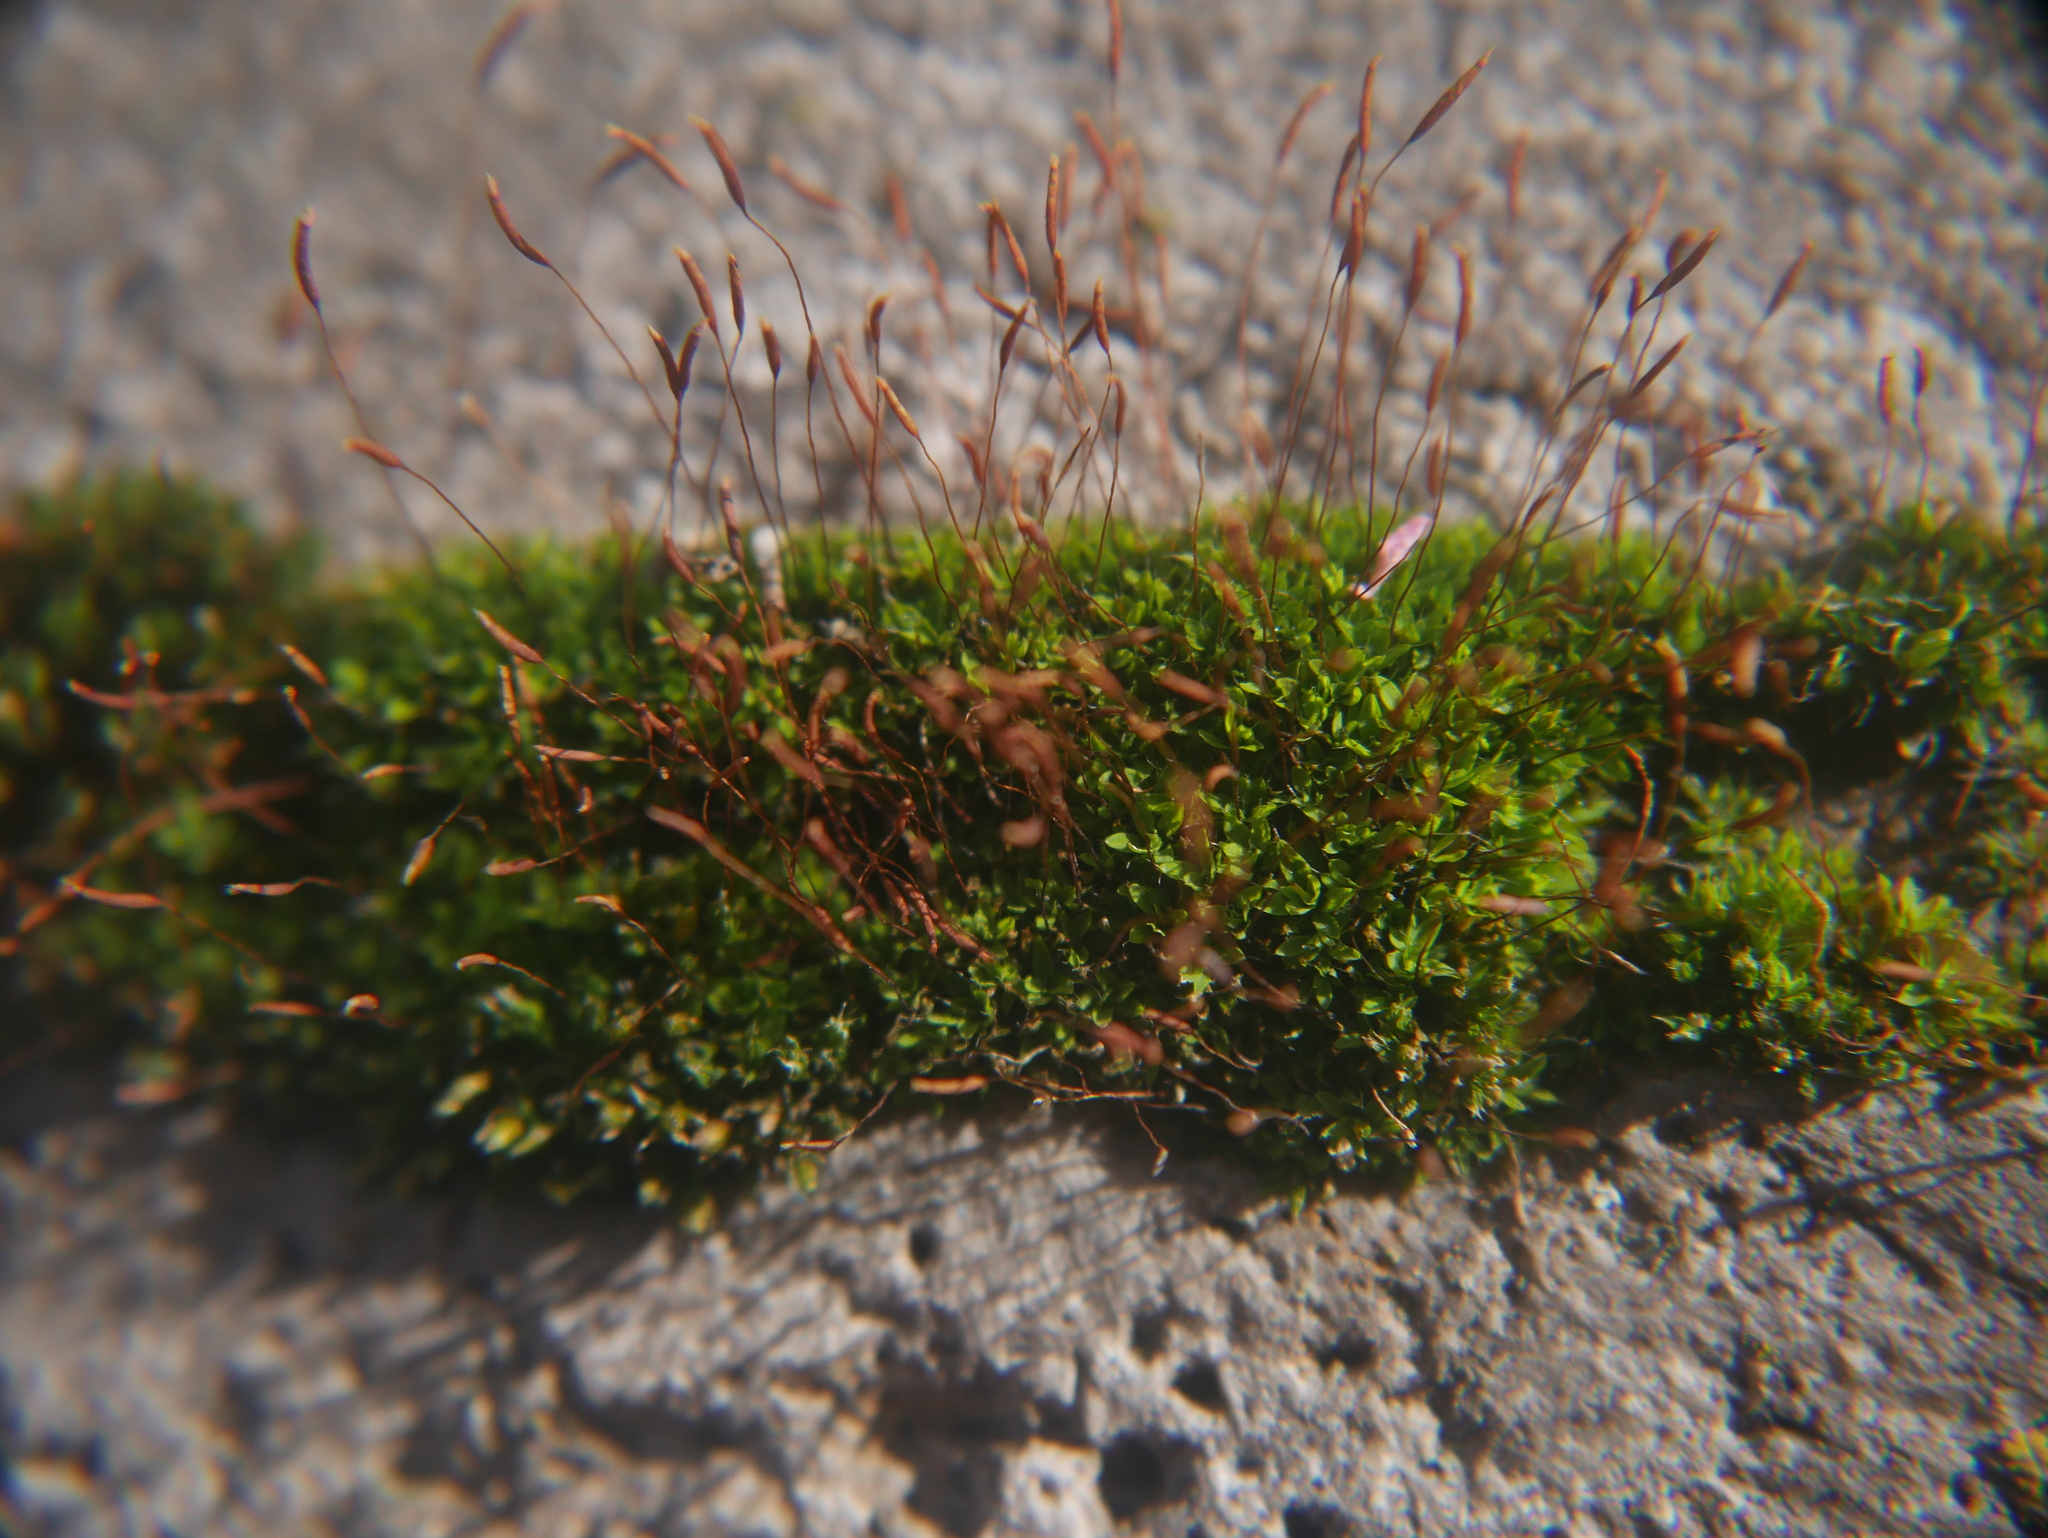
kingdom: Plantae
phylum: Bryophyta
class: Bryopsida
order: Pottiales
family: Pottiaceae
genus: Tortula
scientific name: Tortula muralis
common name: Wall screw-moss
